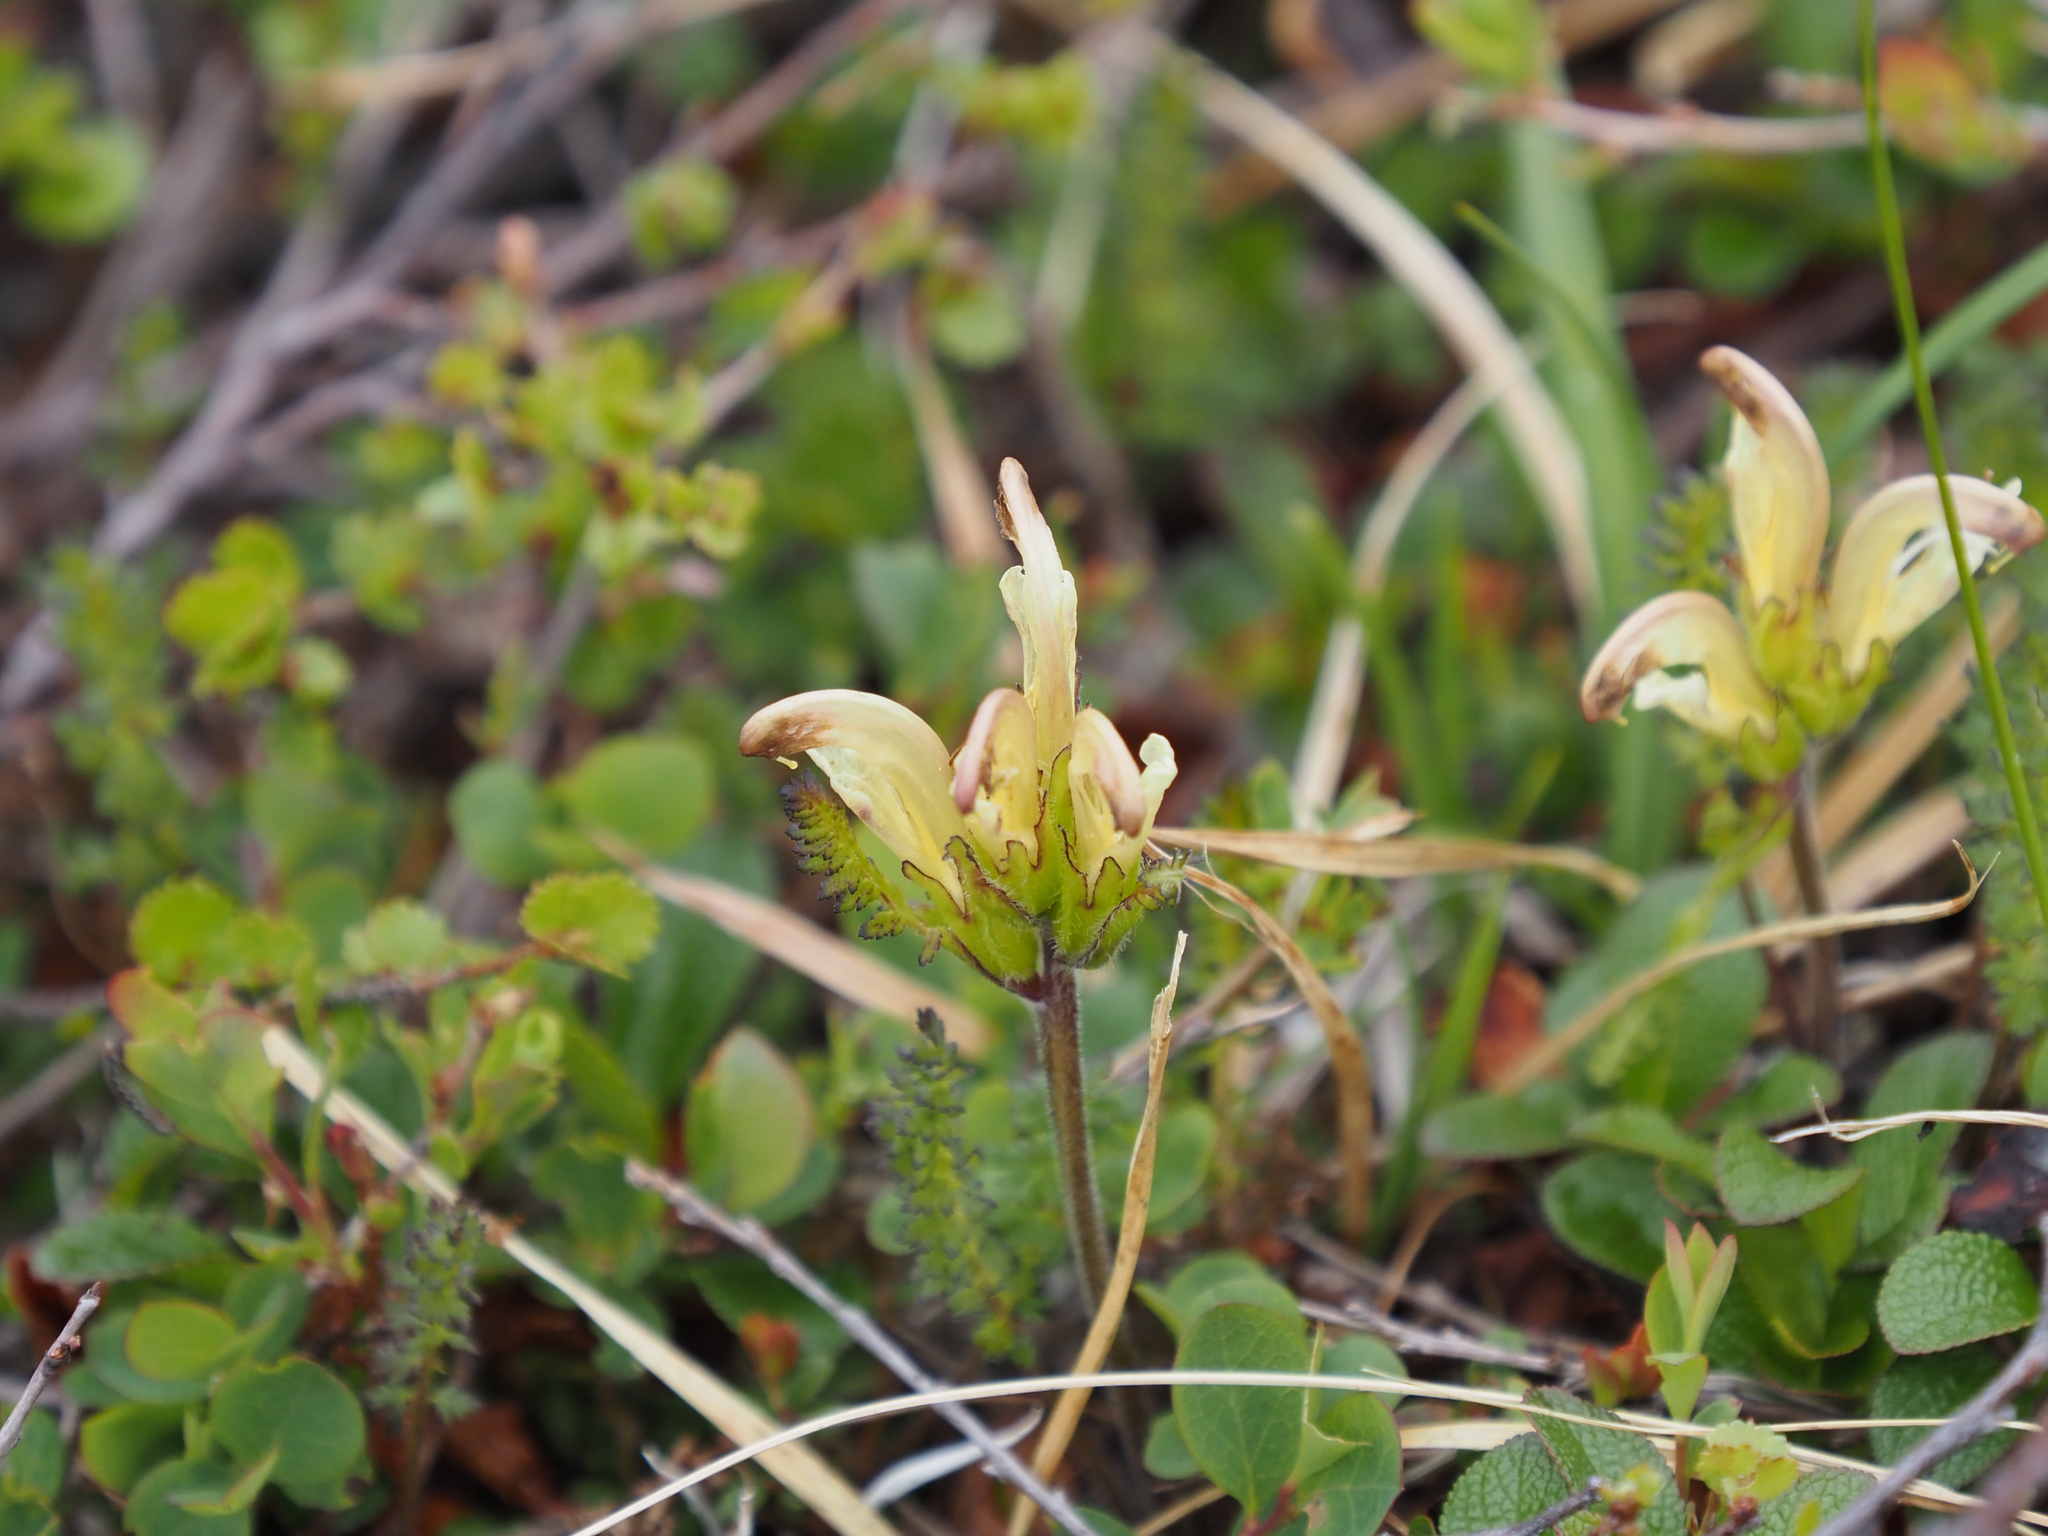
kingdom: Plantae
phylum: Tracheophyta
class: Magnoliopsida
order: Lamiales
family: Orobanchaceae
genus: Pedicularis
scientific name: Pedicularis capitata
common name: Capitate lousewort
